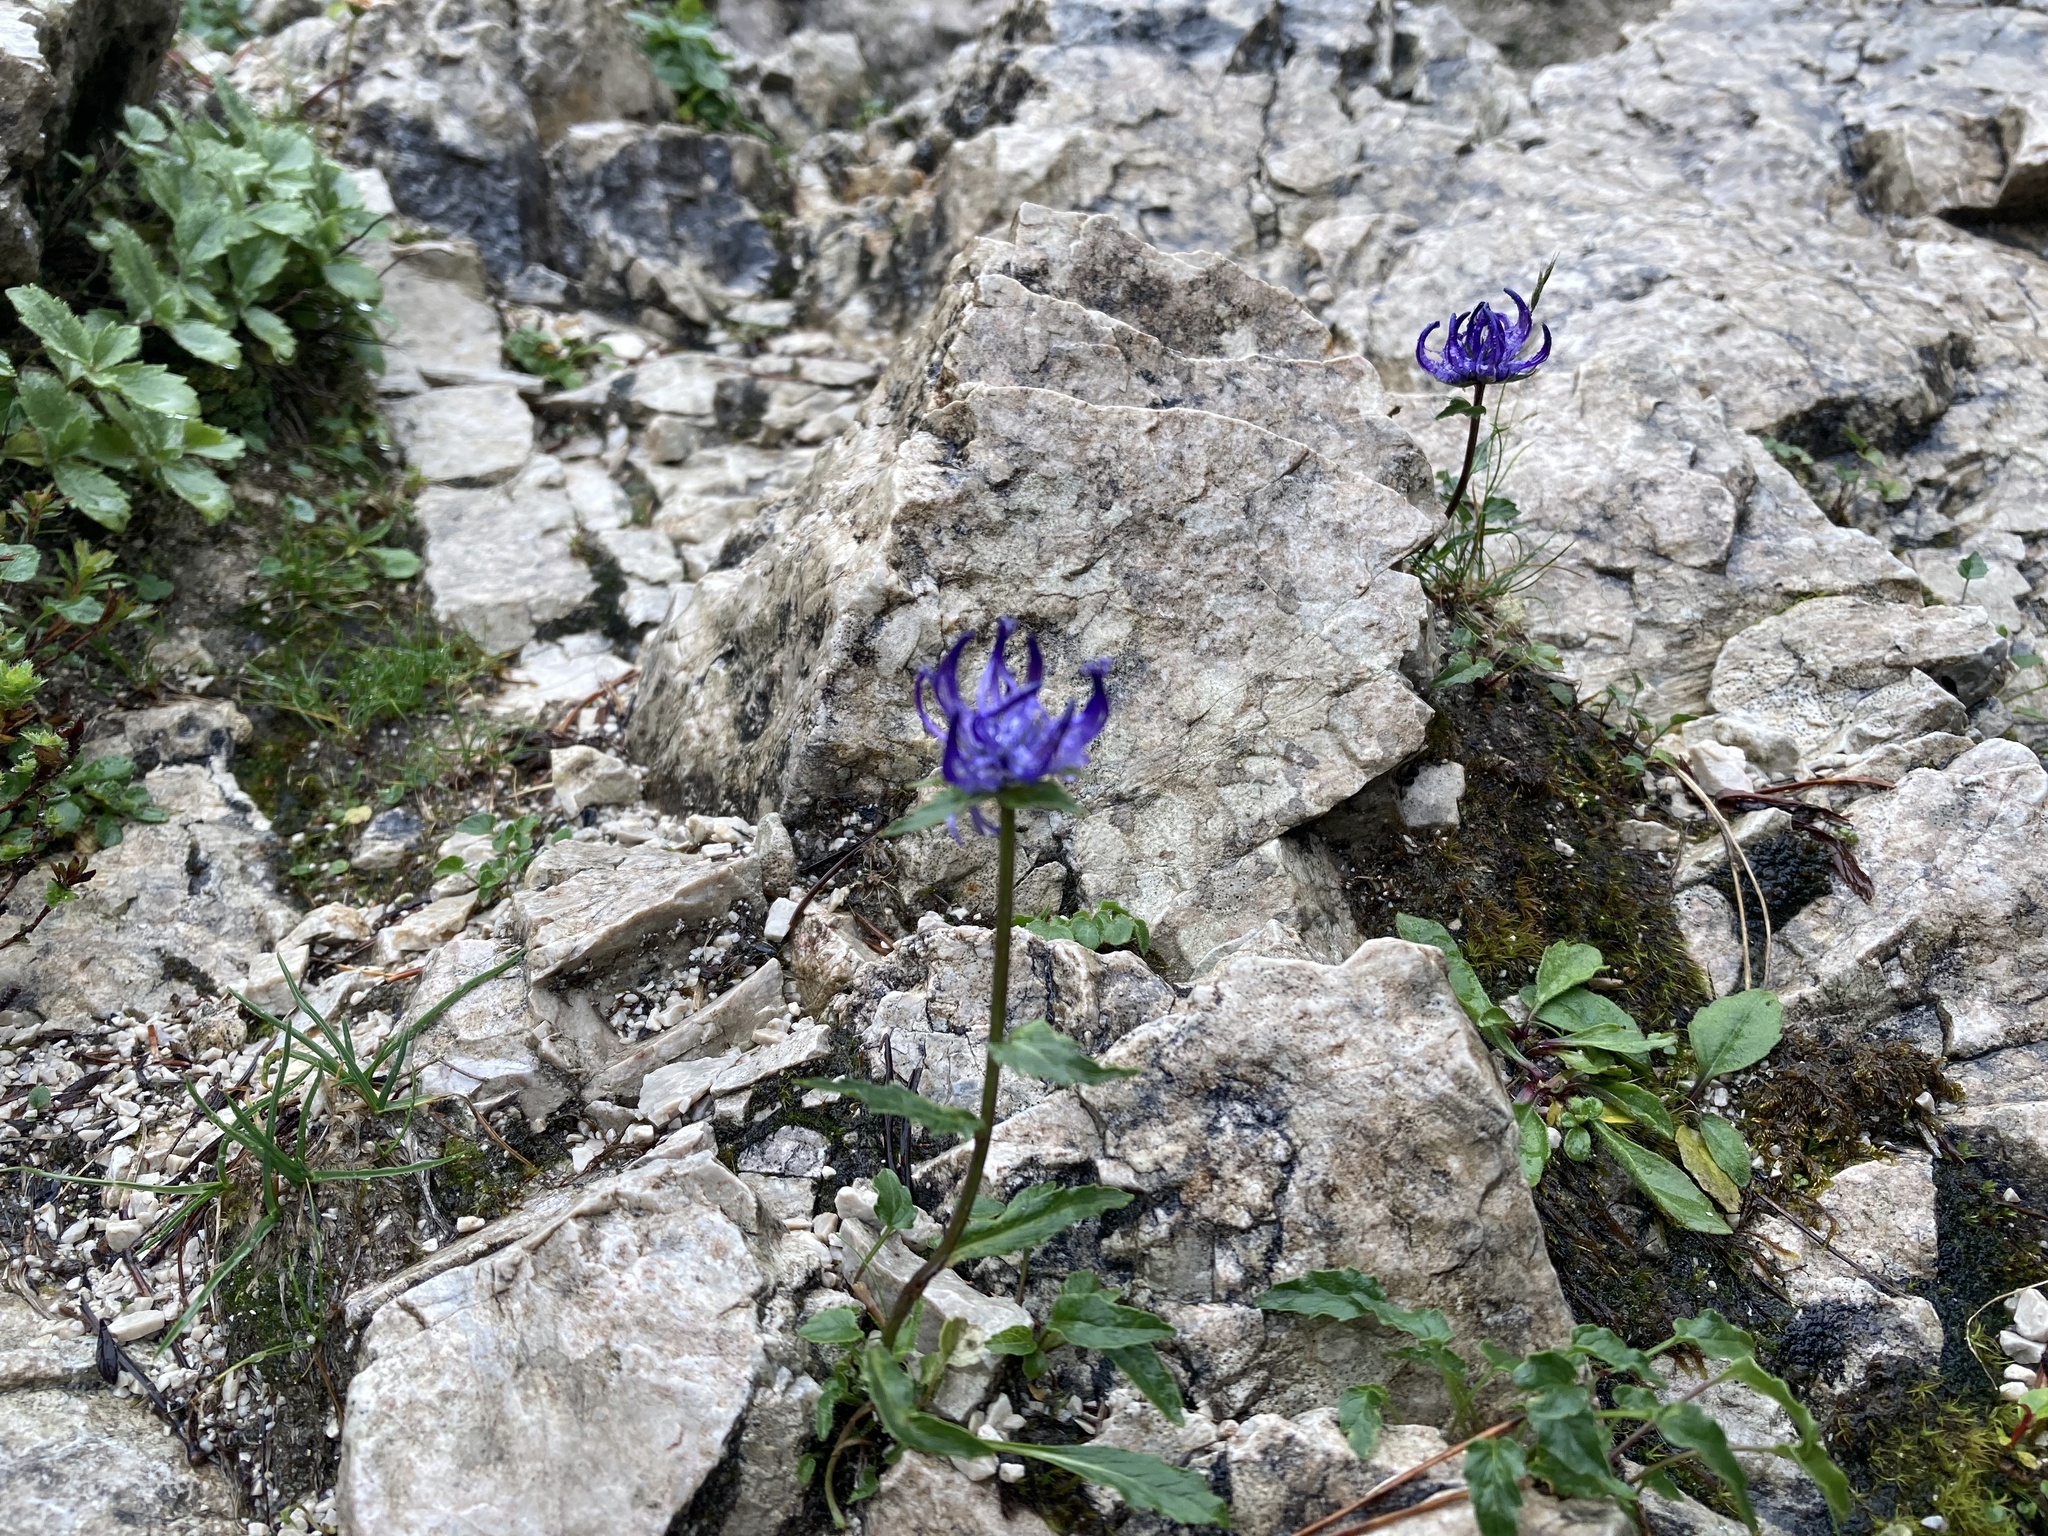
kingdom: Plantae
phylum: Tracheophyta
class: Magnoliopsida
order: Asterales
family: Campanulaceae
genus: Phyteuma
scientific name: Phyteuma sieberi
